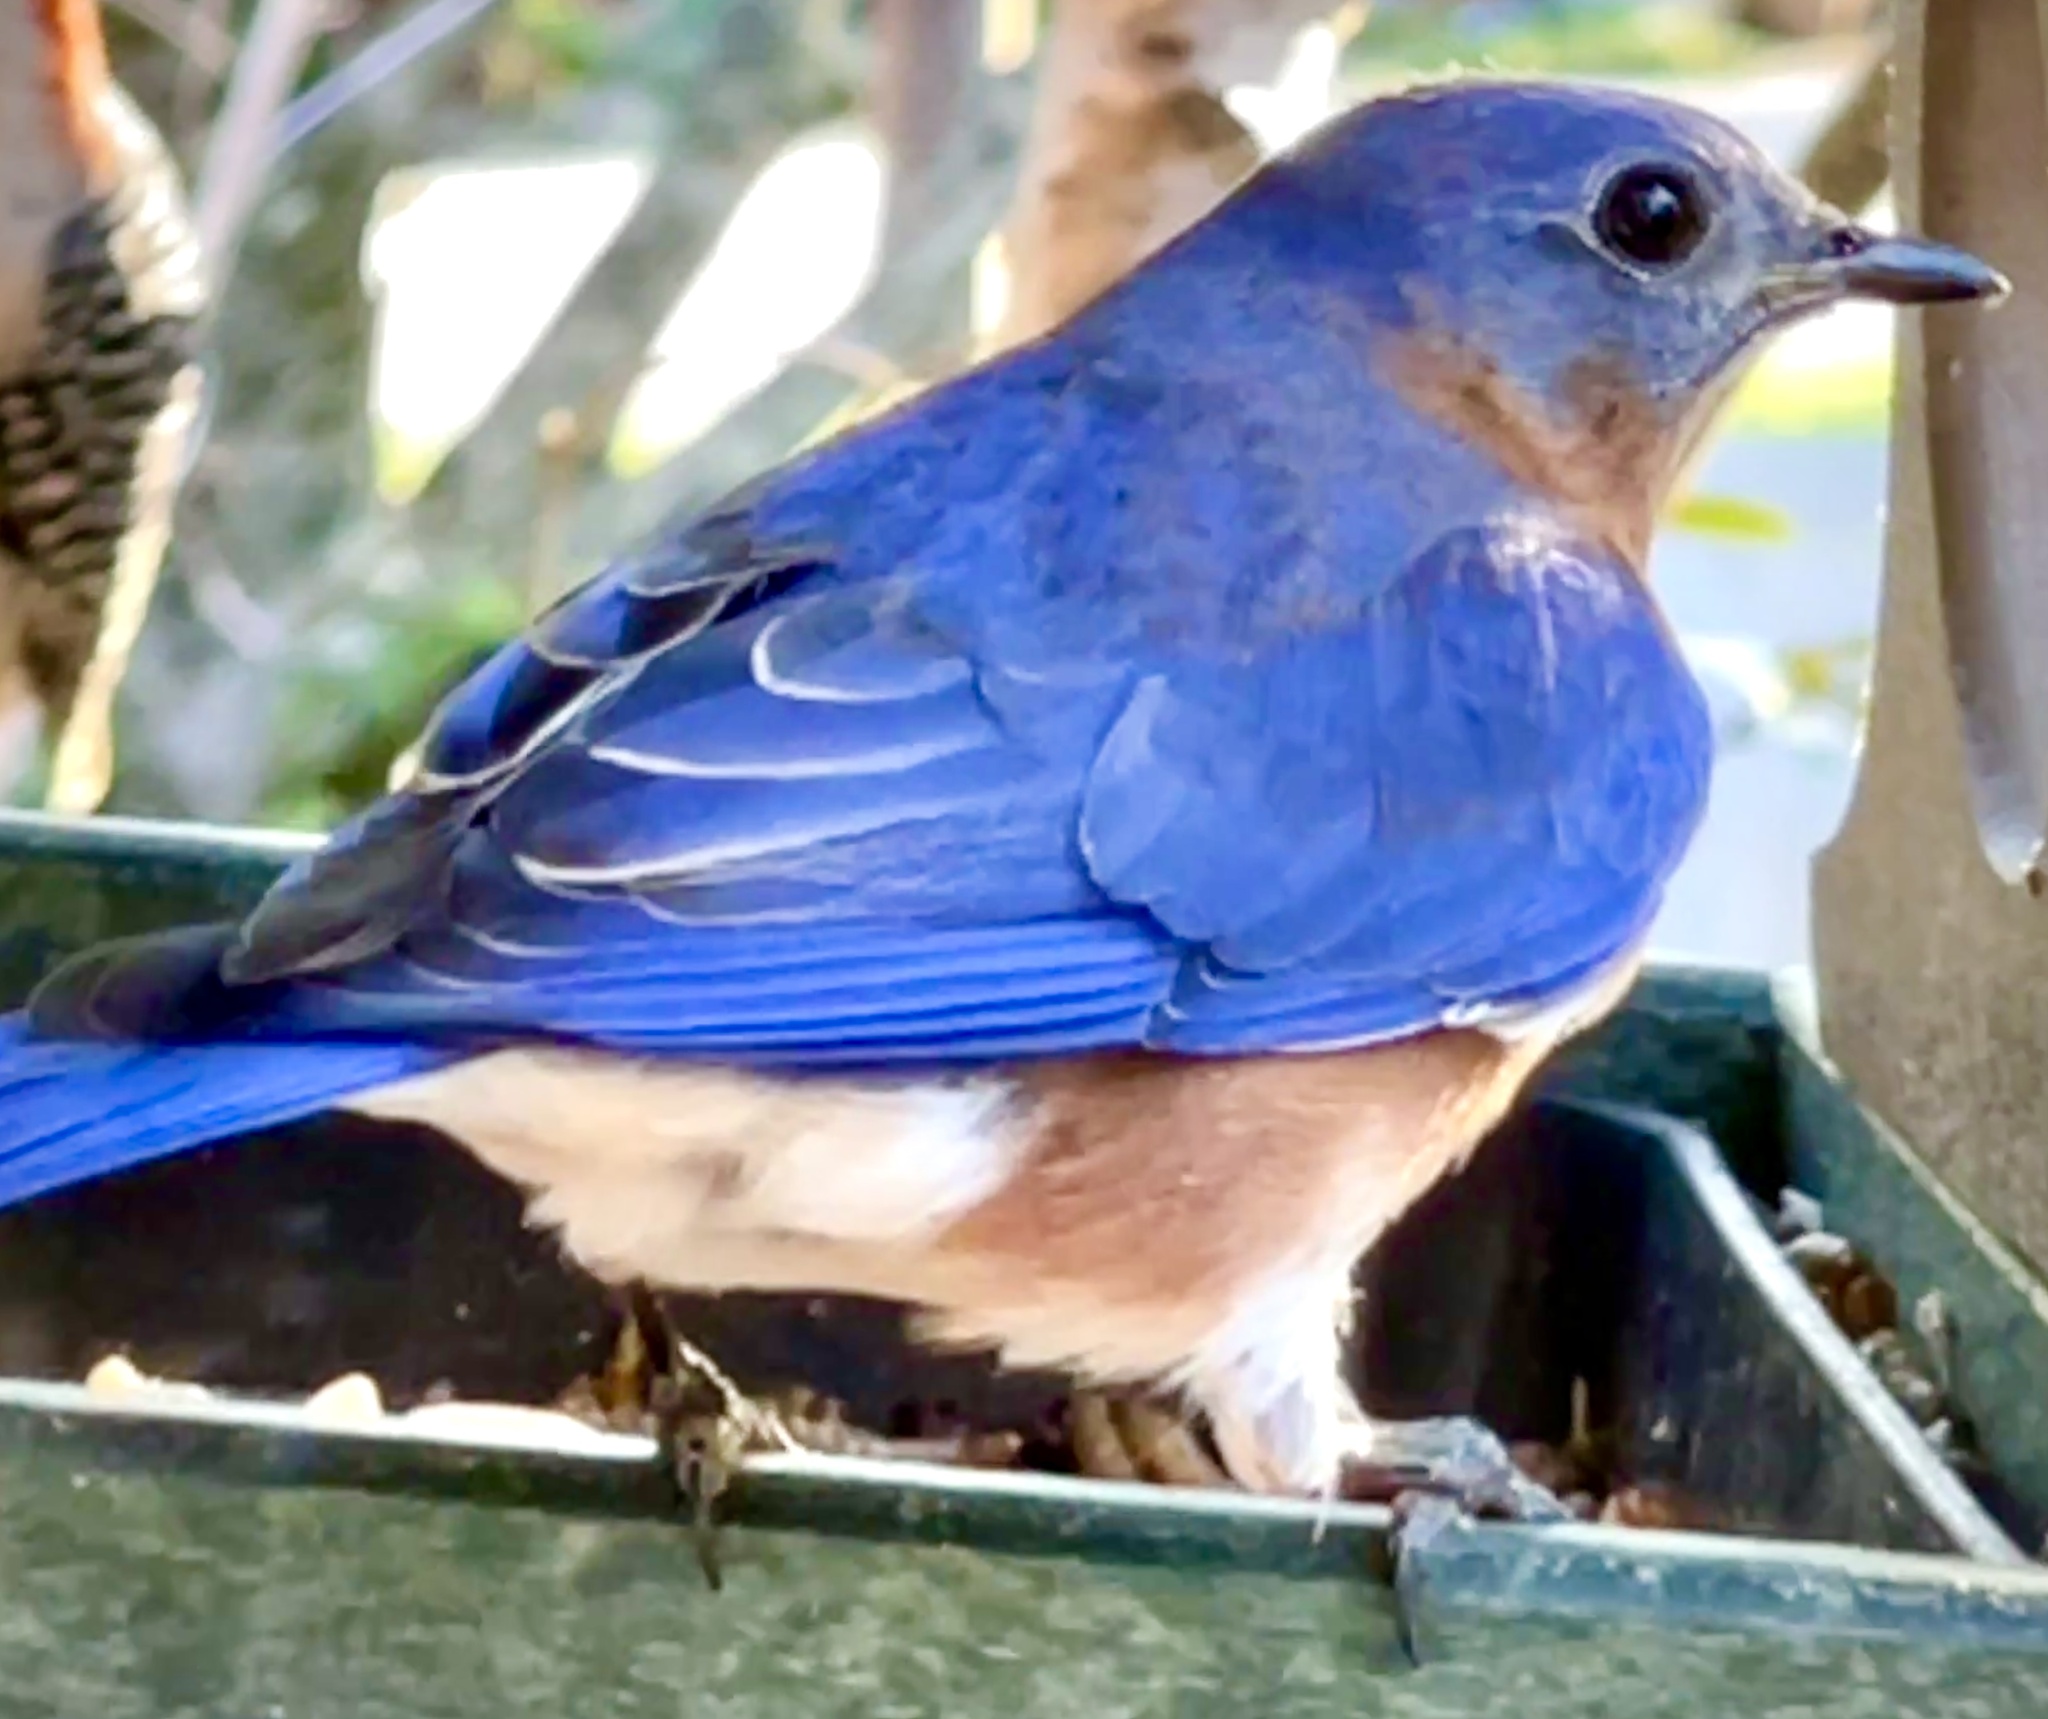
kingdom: Animalia
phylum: Chordata
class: Aves
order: Passeriformes
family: Turdidae
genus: Sialia
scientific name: Sialia sialis
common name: Eastern bluebird
